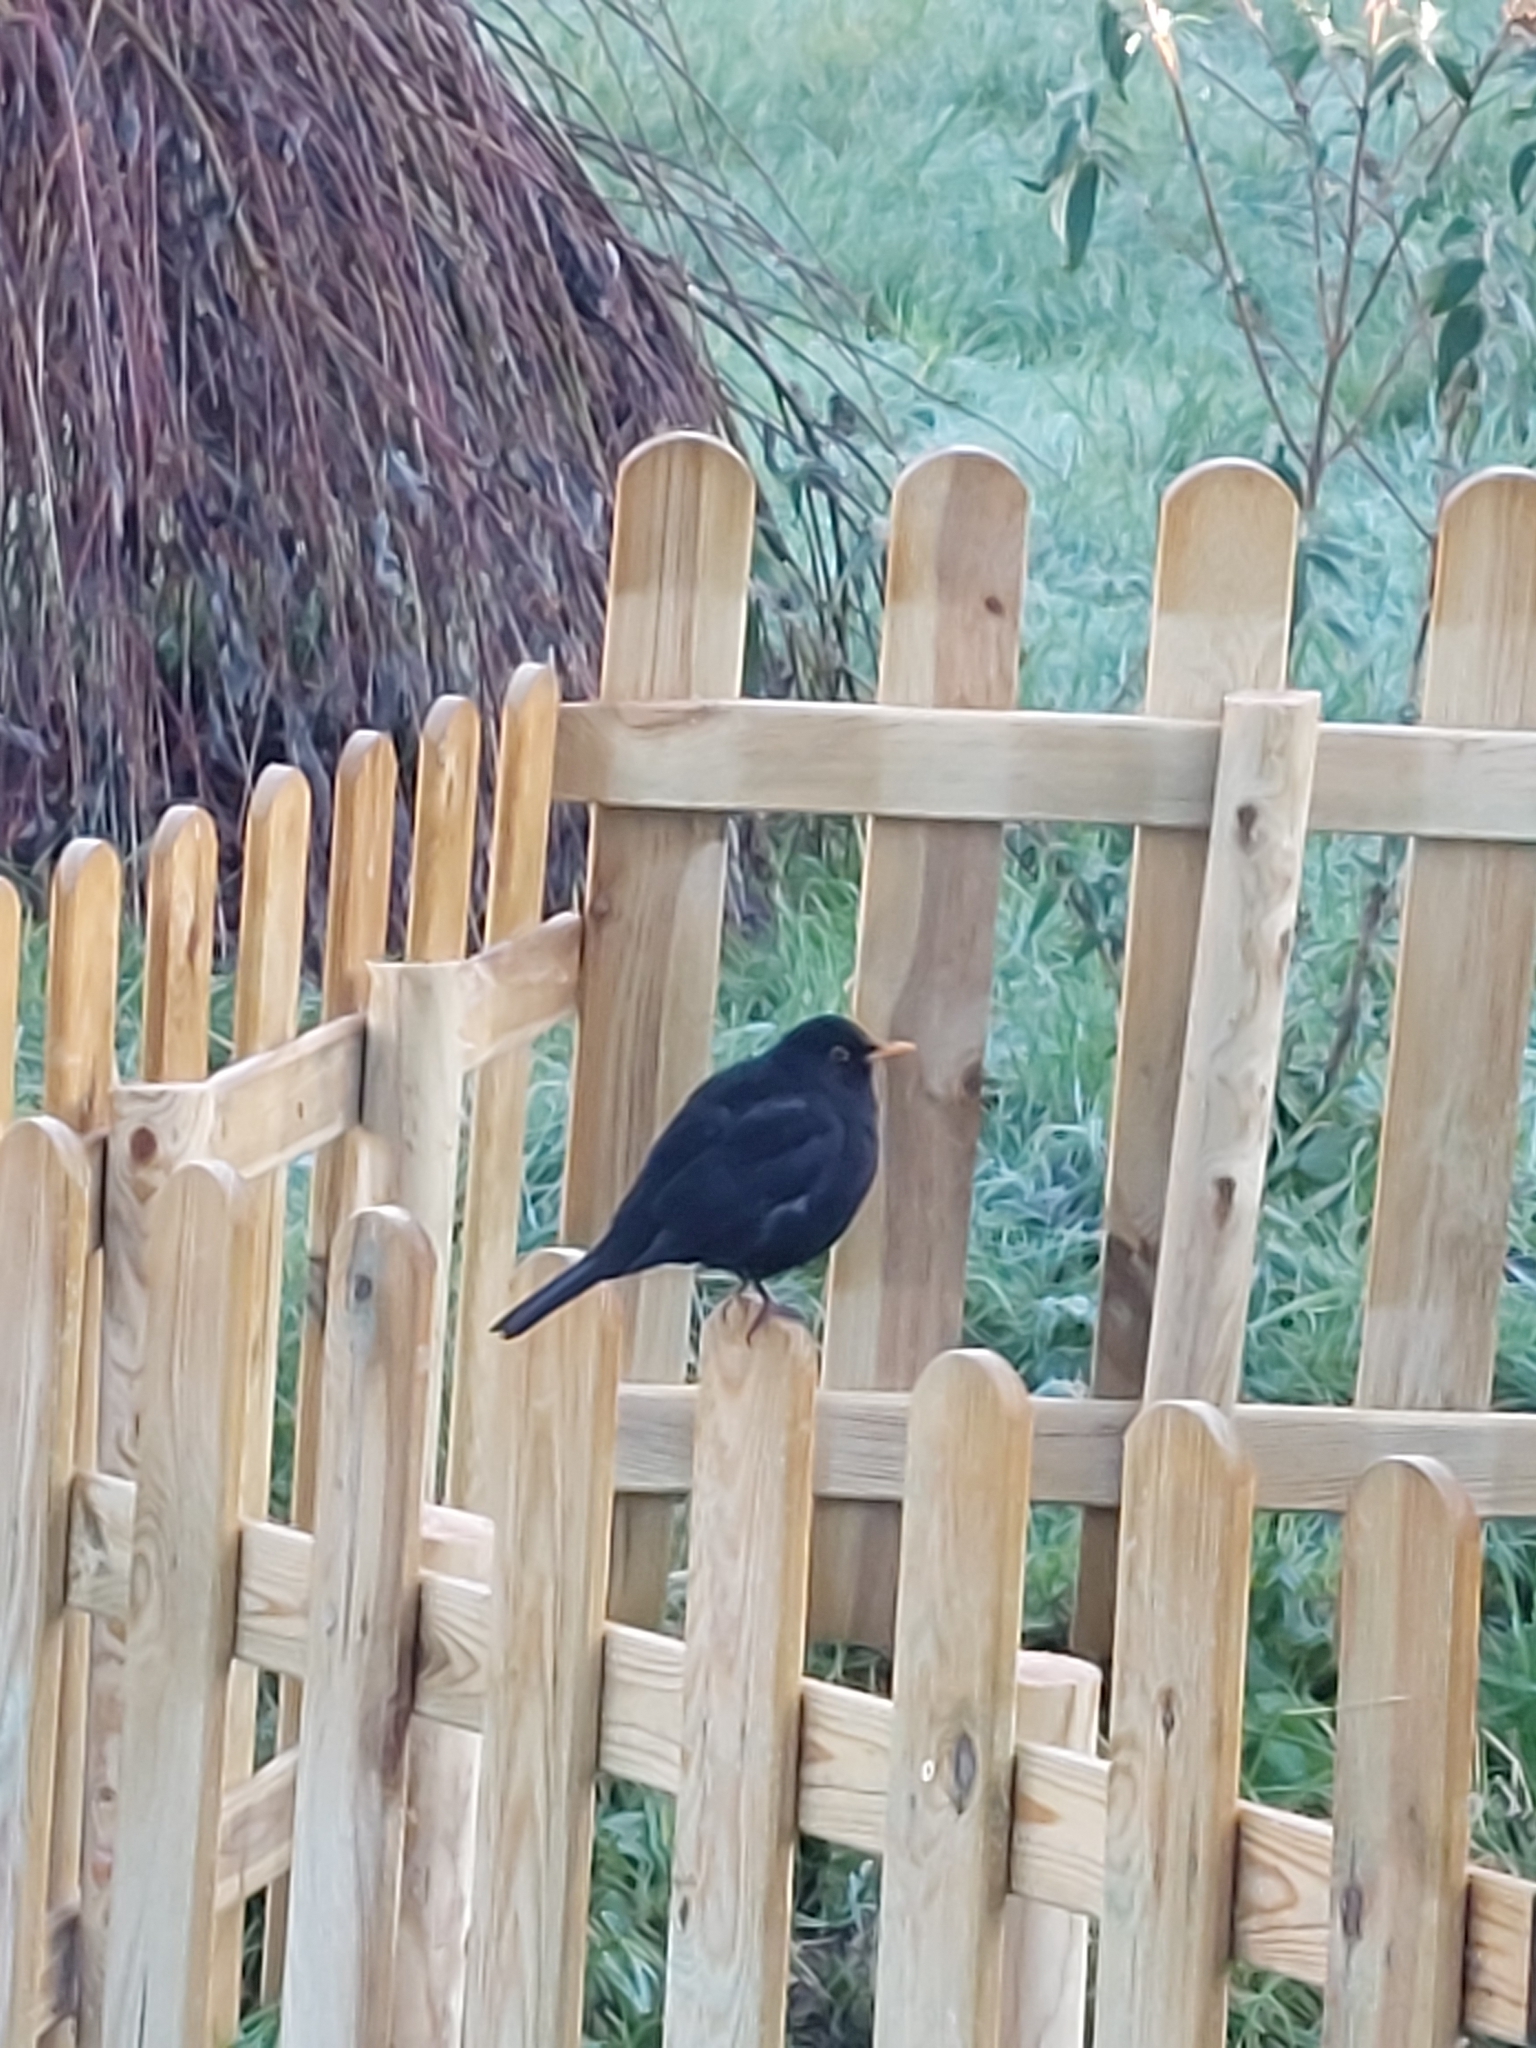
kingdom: Animalia
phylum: Chordata
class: Aves
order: Passeriformes
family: Turdidae
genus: Turdus
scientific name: Turdus merula
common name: Common blackbird
